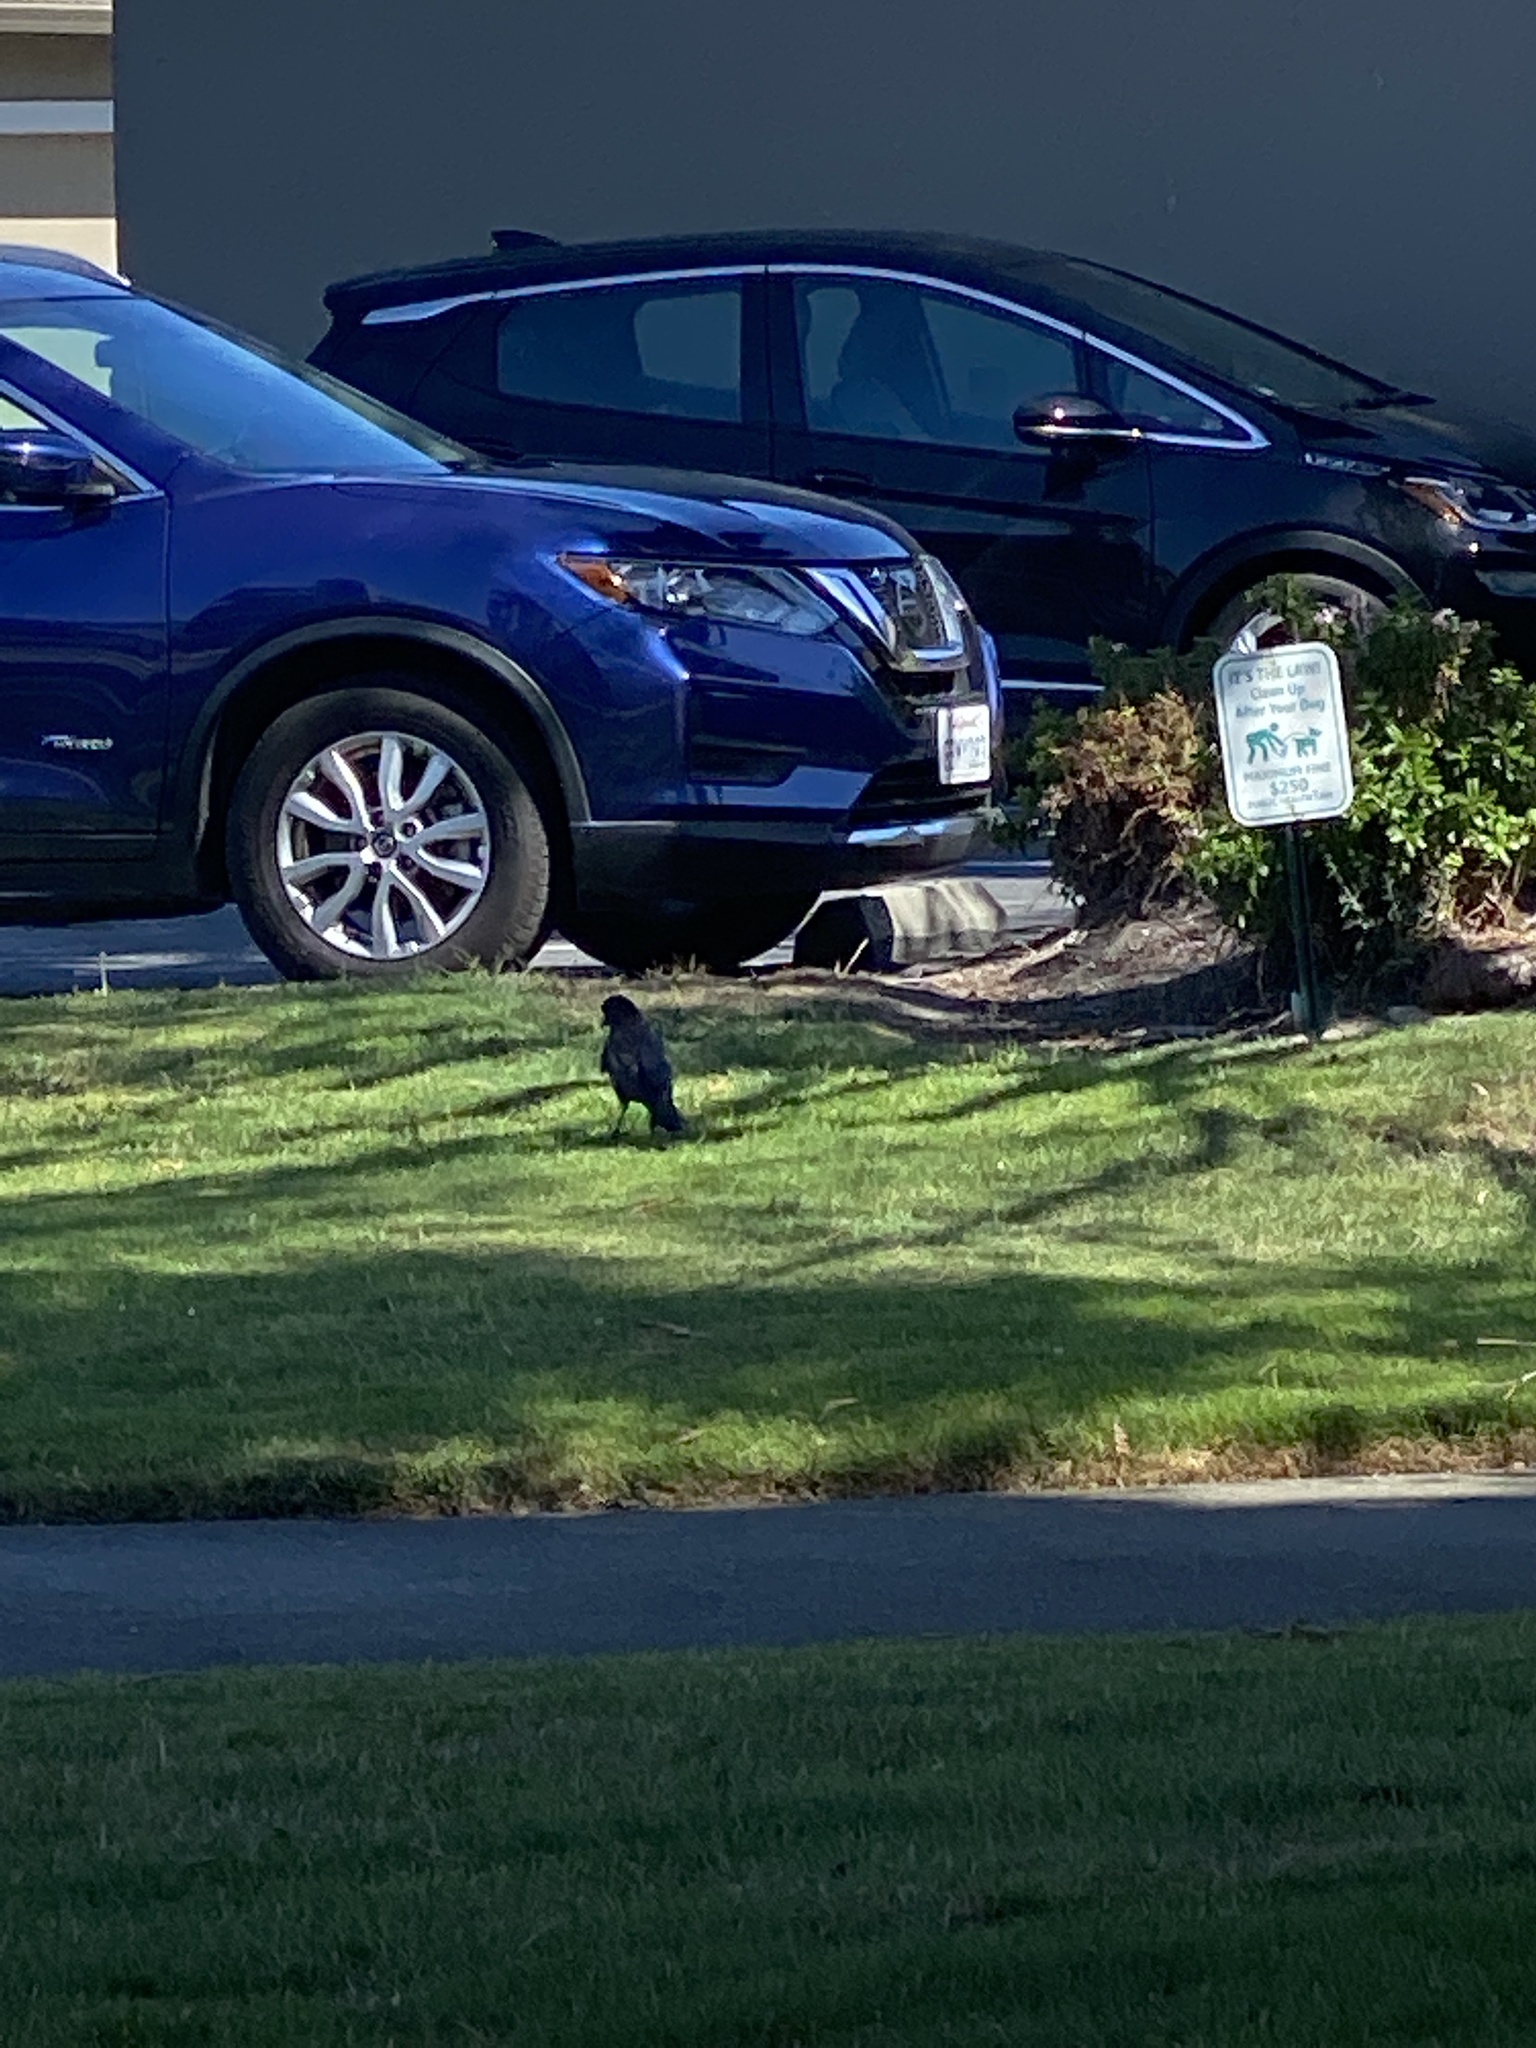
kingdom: Animalia
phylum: Chordata
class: Aves
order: Passeriformes
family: Corvidae
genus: Corvus
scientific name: Corvus brachyrhynchos
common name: American crow
